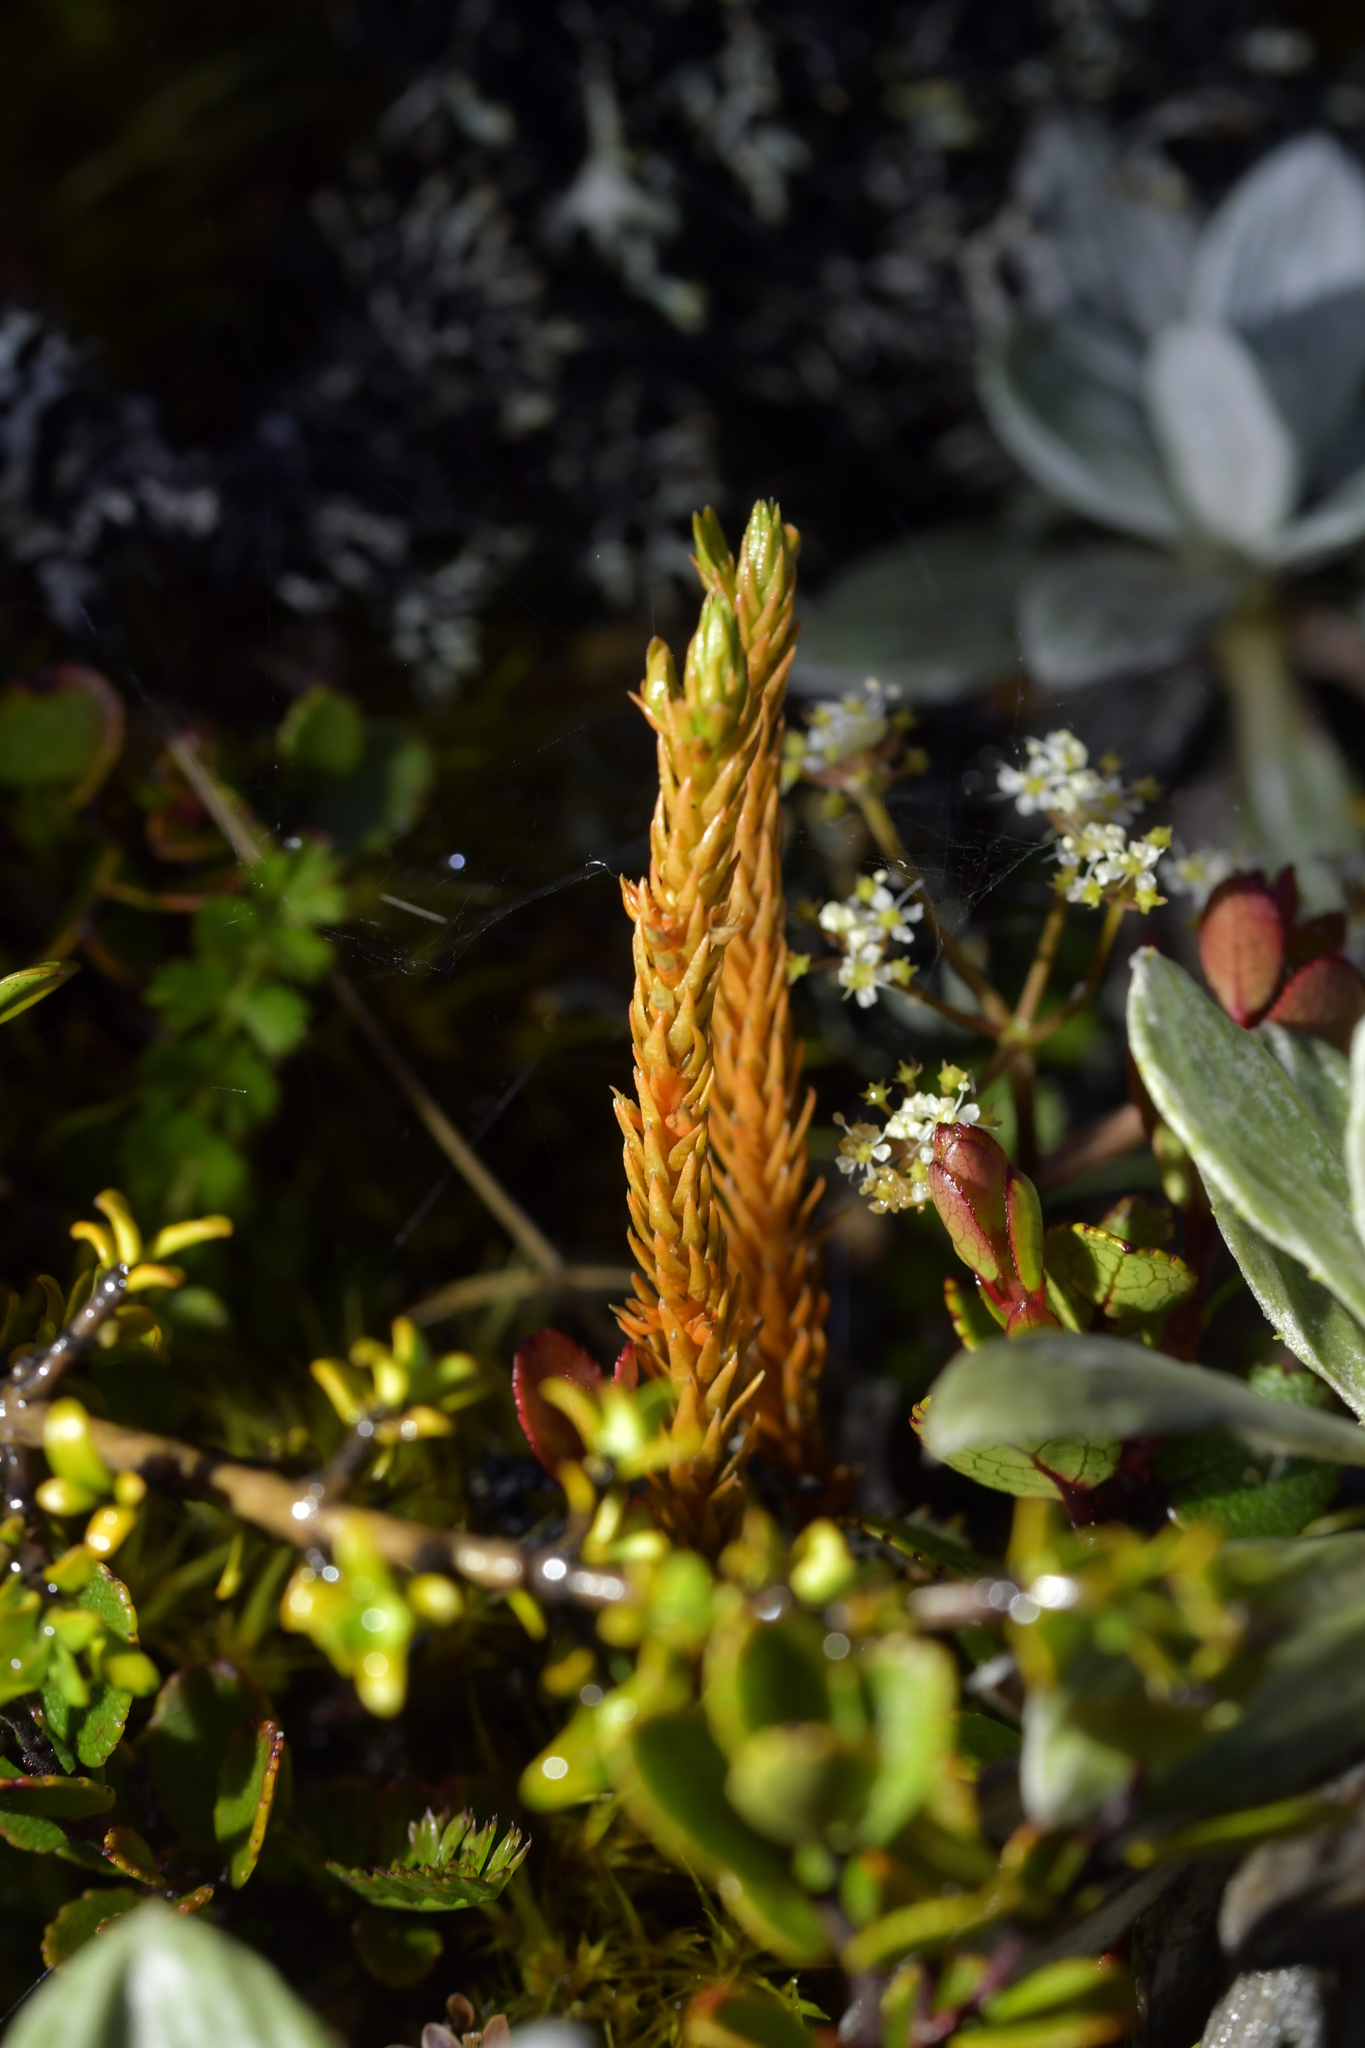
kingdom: Plantae
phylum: Tracheophyta
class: Lycopodiopsida
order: Lycopodiales
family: Lycopodiaceae
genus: Huperzia
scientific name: Huperzia australiana
